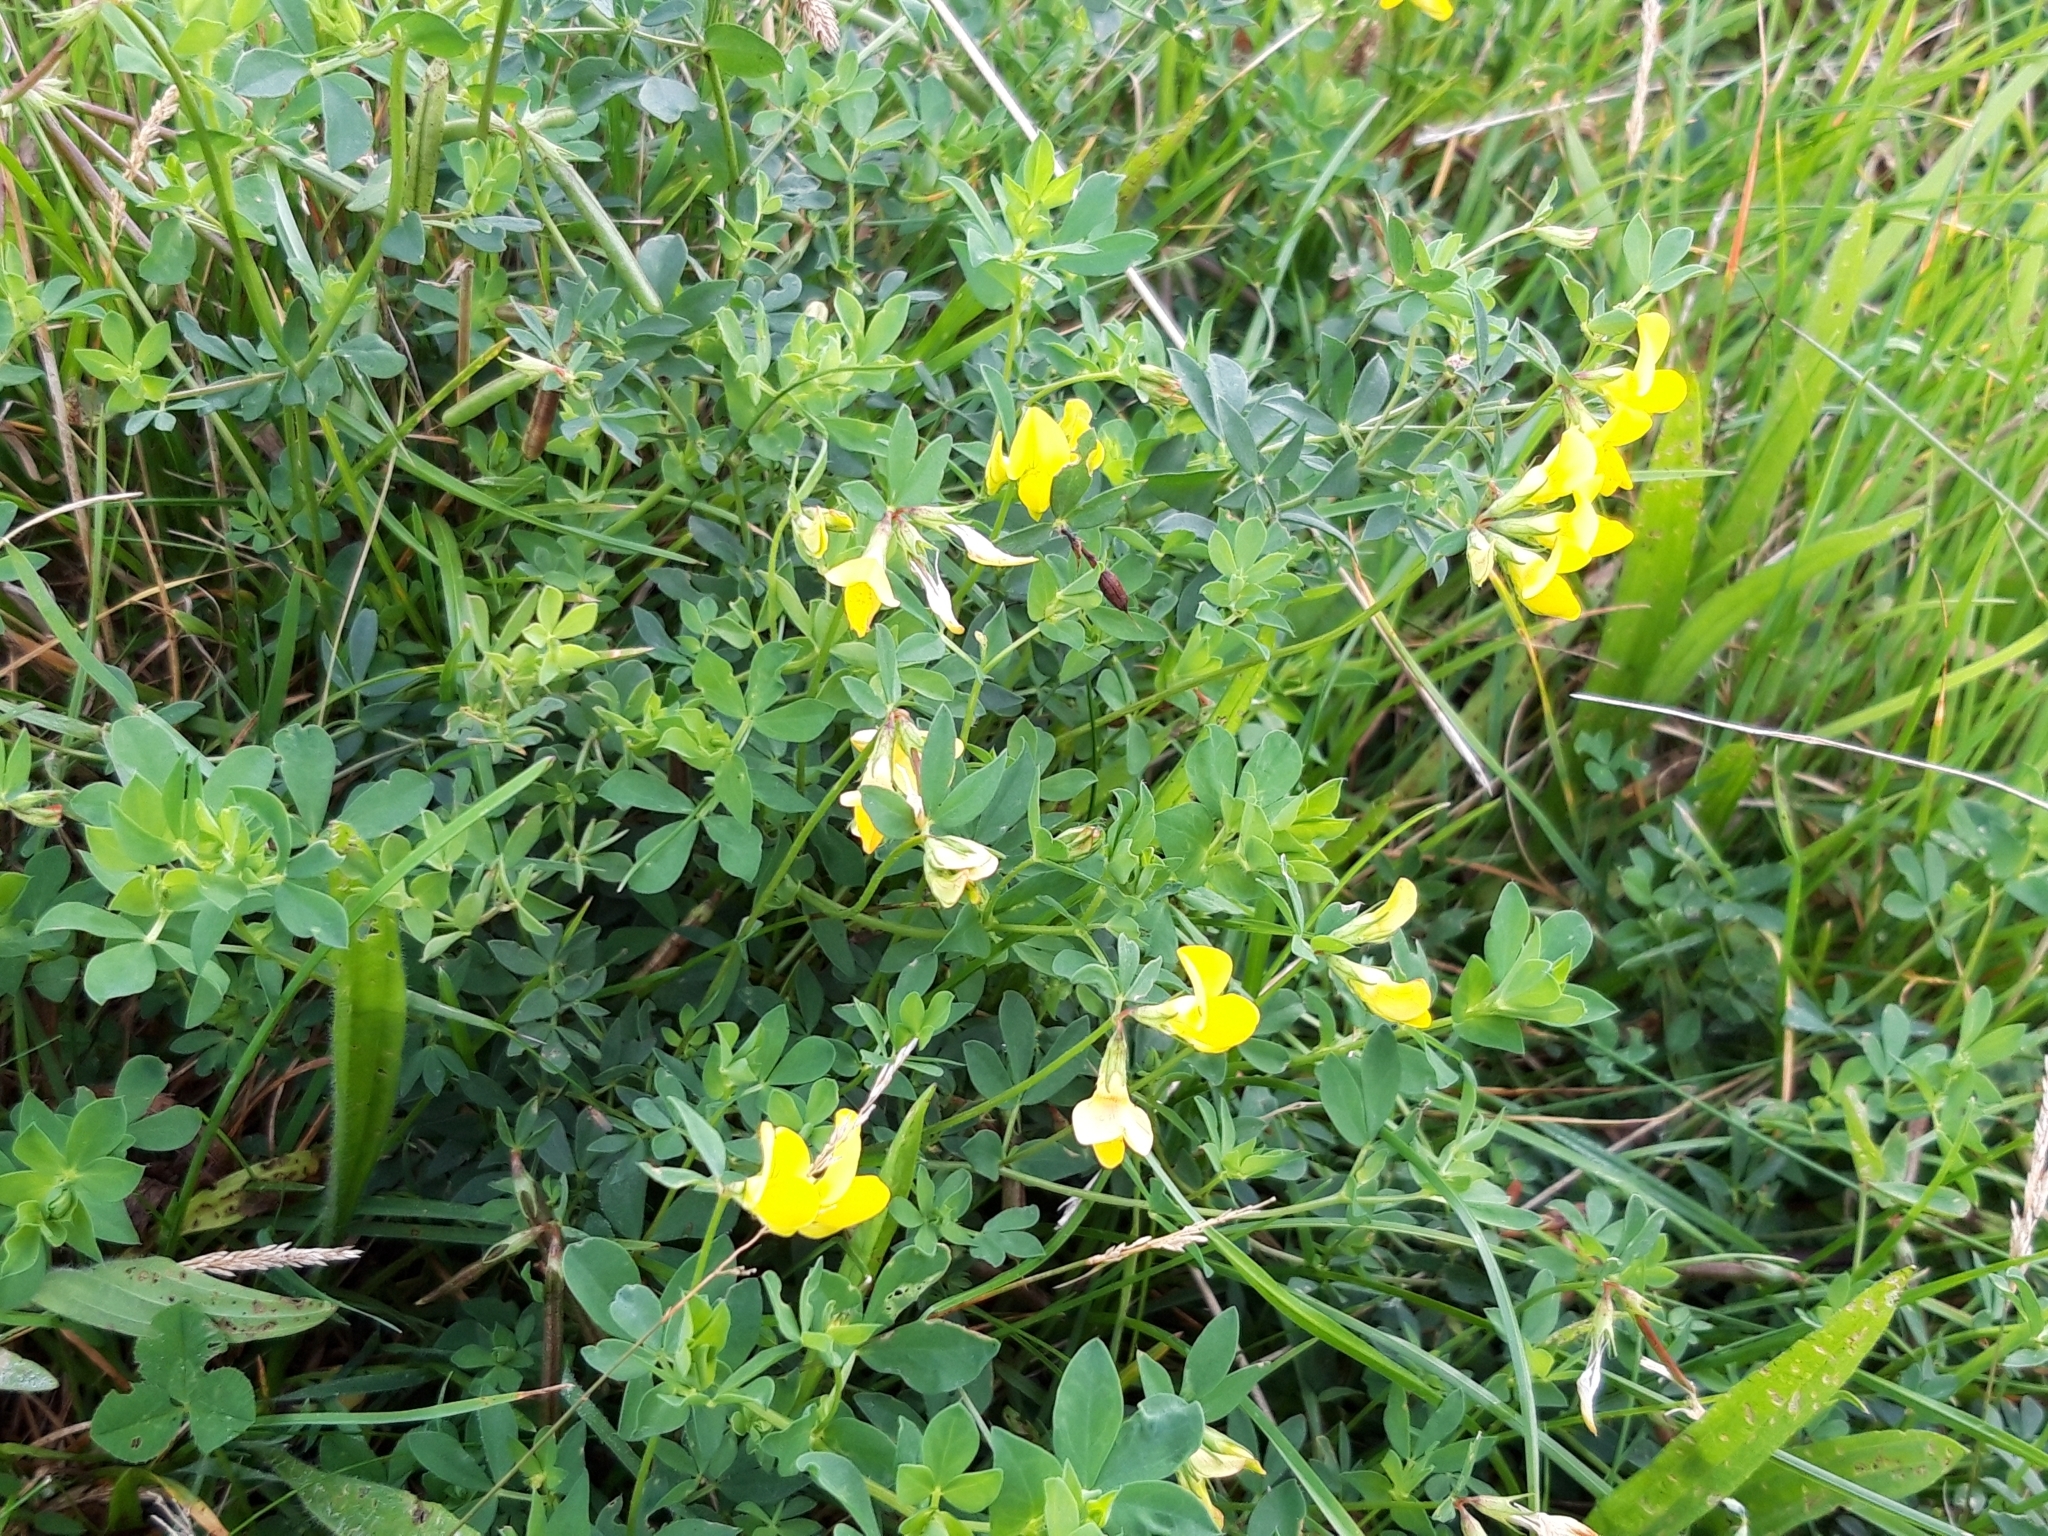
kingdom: Plantae
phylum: Tracheophyta
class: Magnoliopsida
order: Fabales
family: Fabaceae
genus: Lotus
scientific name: Lotus corniculatus
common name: Common bird's-foot-trefoil
